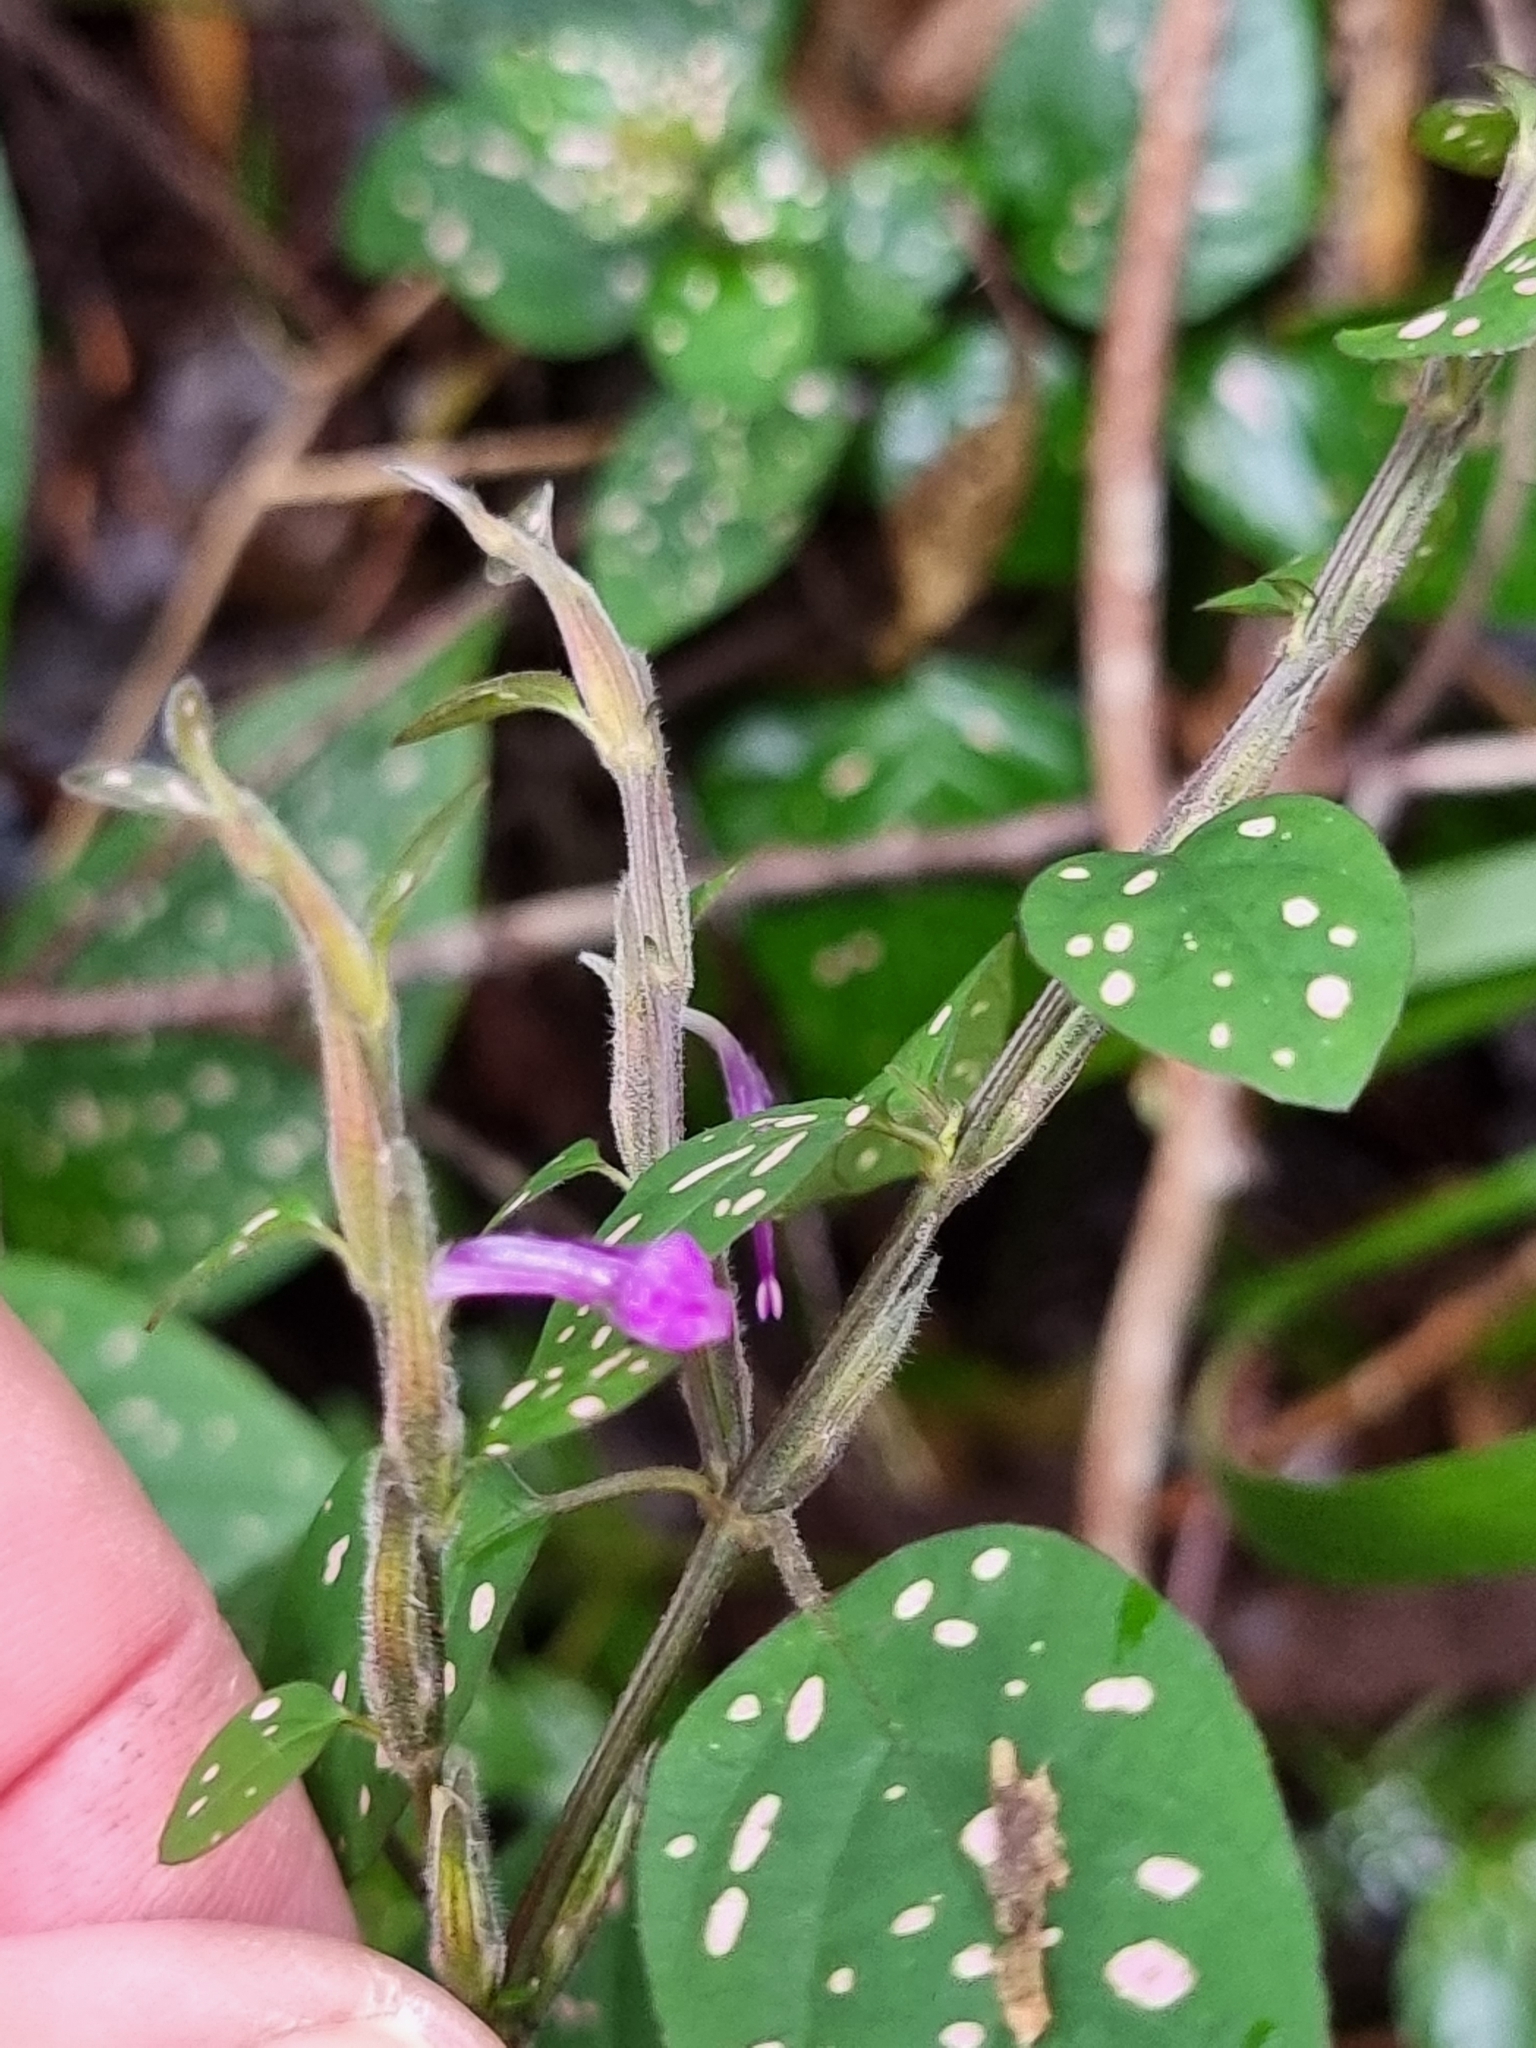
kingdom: Plantae
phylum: Tracheophyta
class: Magnoliopsida
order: Lamiales
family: Acanthaceae
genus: Hypoestes
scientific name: Hypoestes phyllostachya
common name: Polkadot-plant
